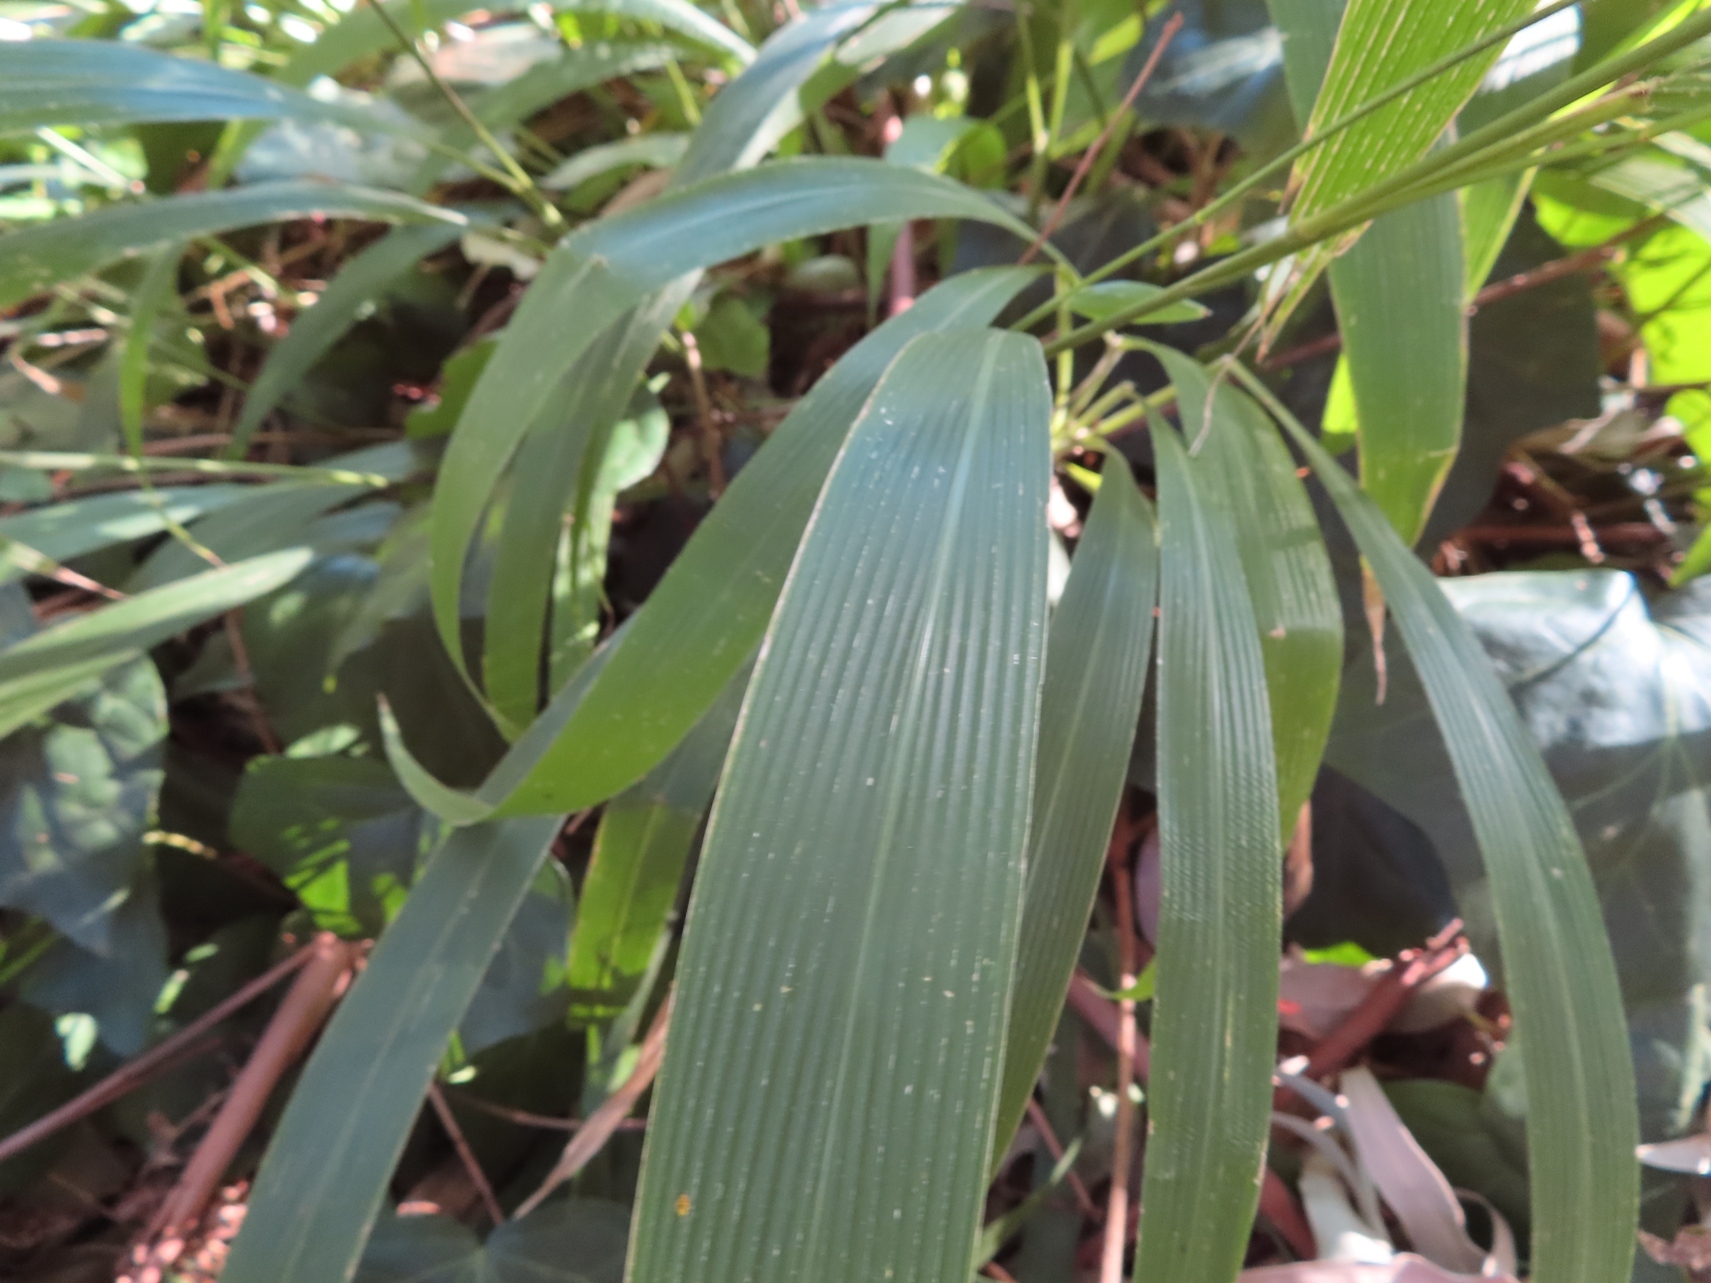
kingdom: Plantae
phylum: Tracheophyta
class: Liliopsida
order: Poales
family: Poaceae
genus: Setaria
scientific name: Setaria megaphylla
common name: Bigleaf bristlegrass
